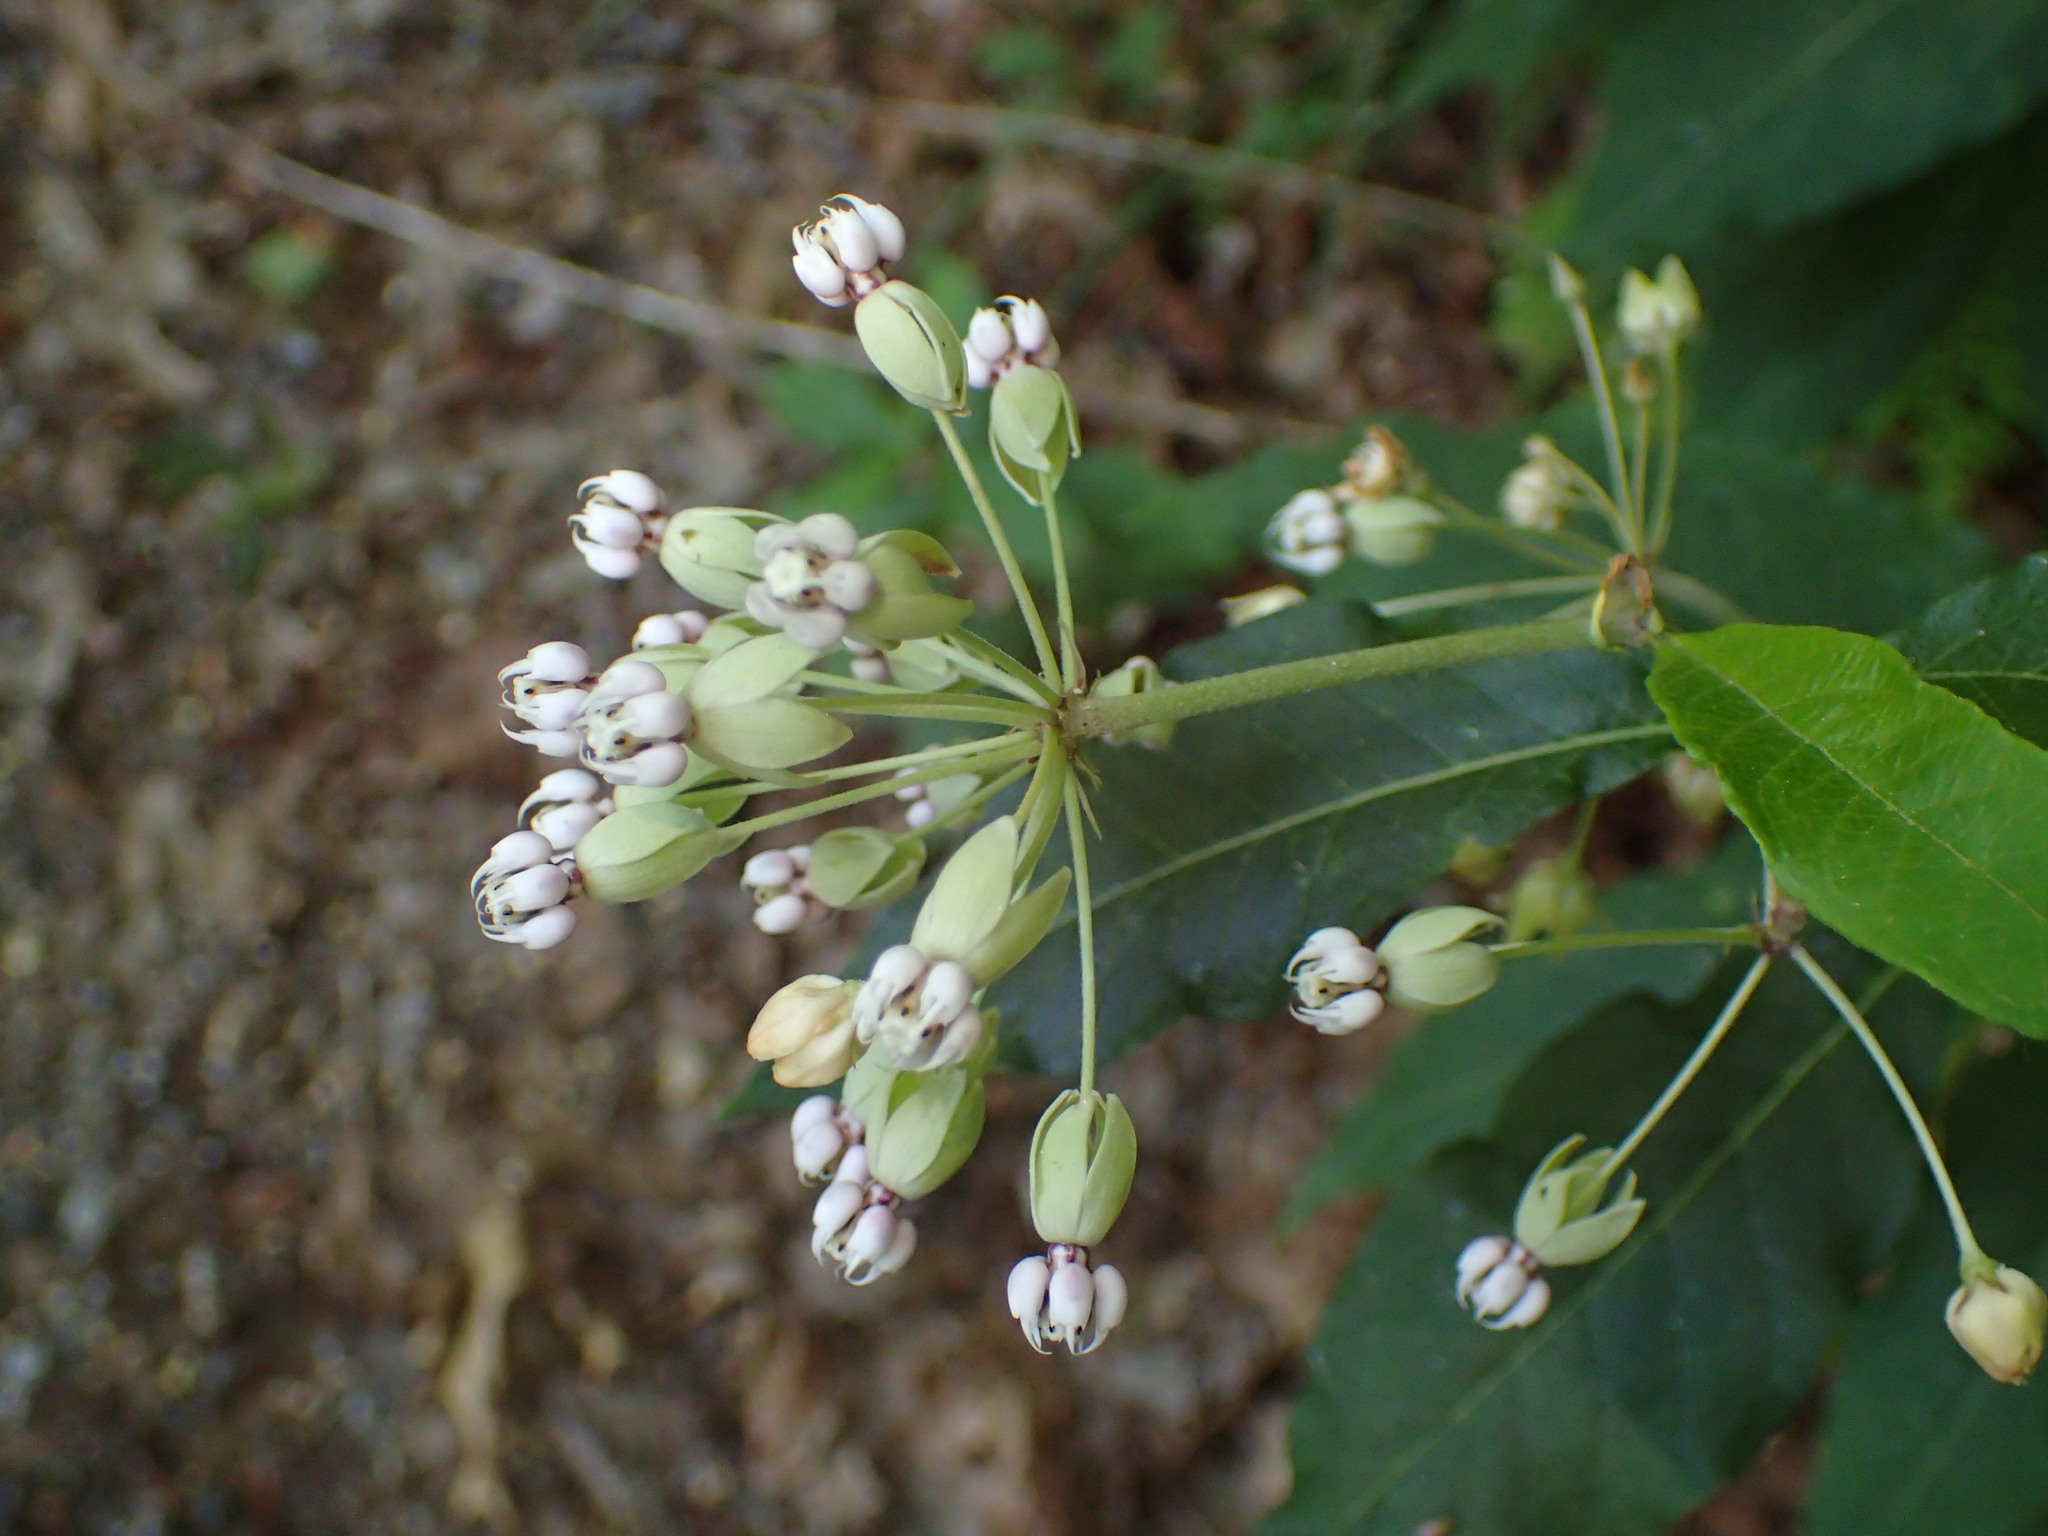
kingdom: Plantae
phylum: Tracheophyta
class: Magnoliopsida
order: Gentianales
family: Apocynaceae
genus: Asclepias
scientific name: Asclepias exaltata
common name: Poke milkweed
